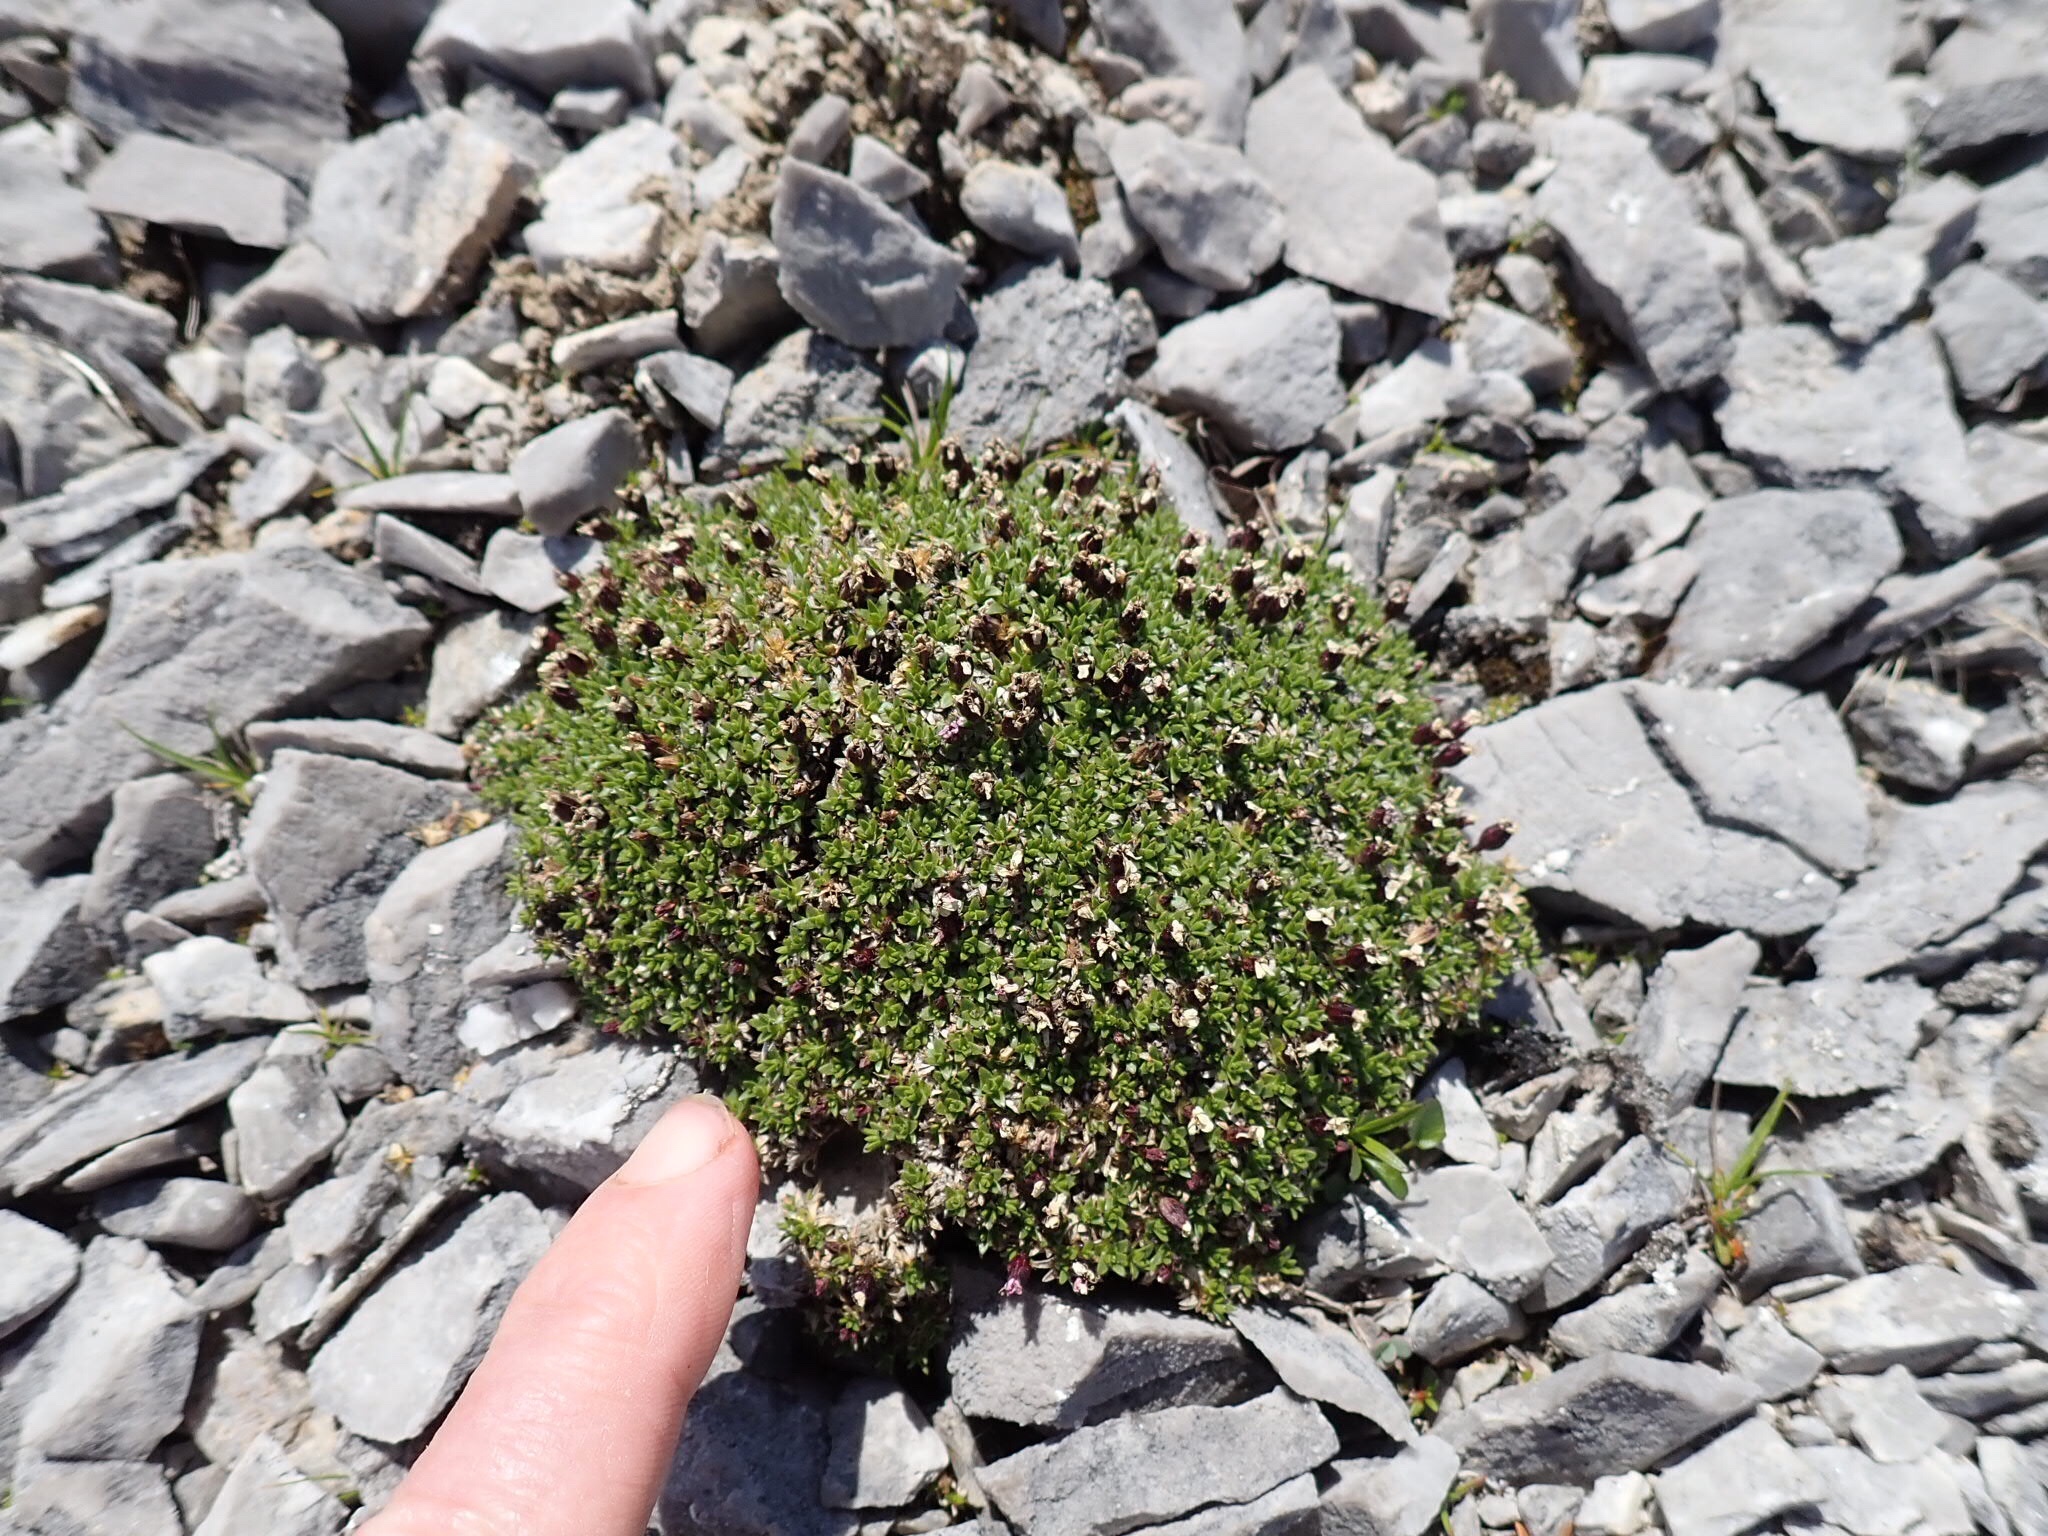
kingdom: Plantae
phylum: Tracheophyta
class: Magnoliopsida
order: Caryophyllales
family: Caryophyllaceae
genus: Silene
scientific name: Silene acaulis
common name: Moss campion
